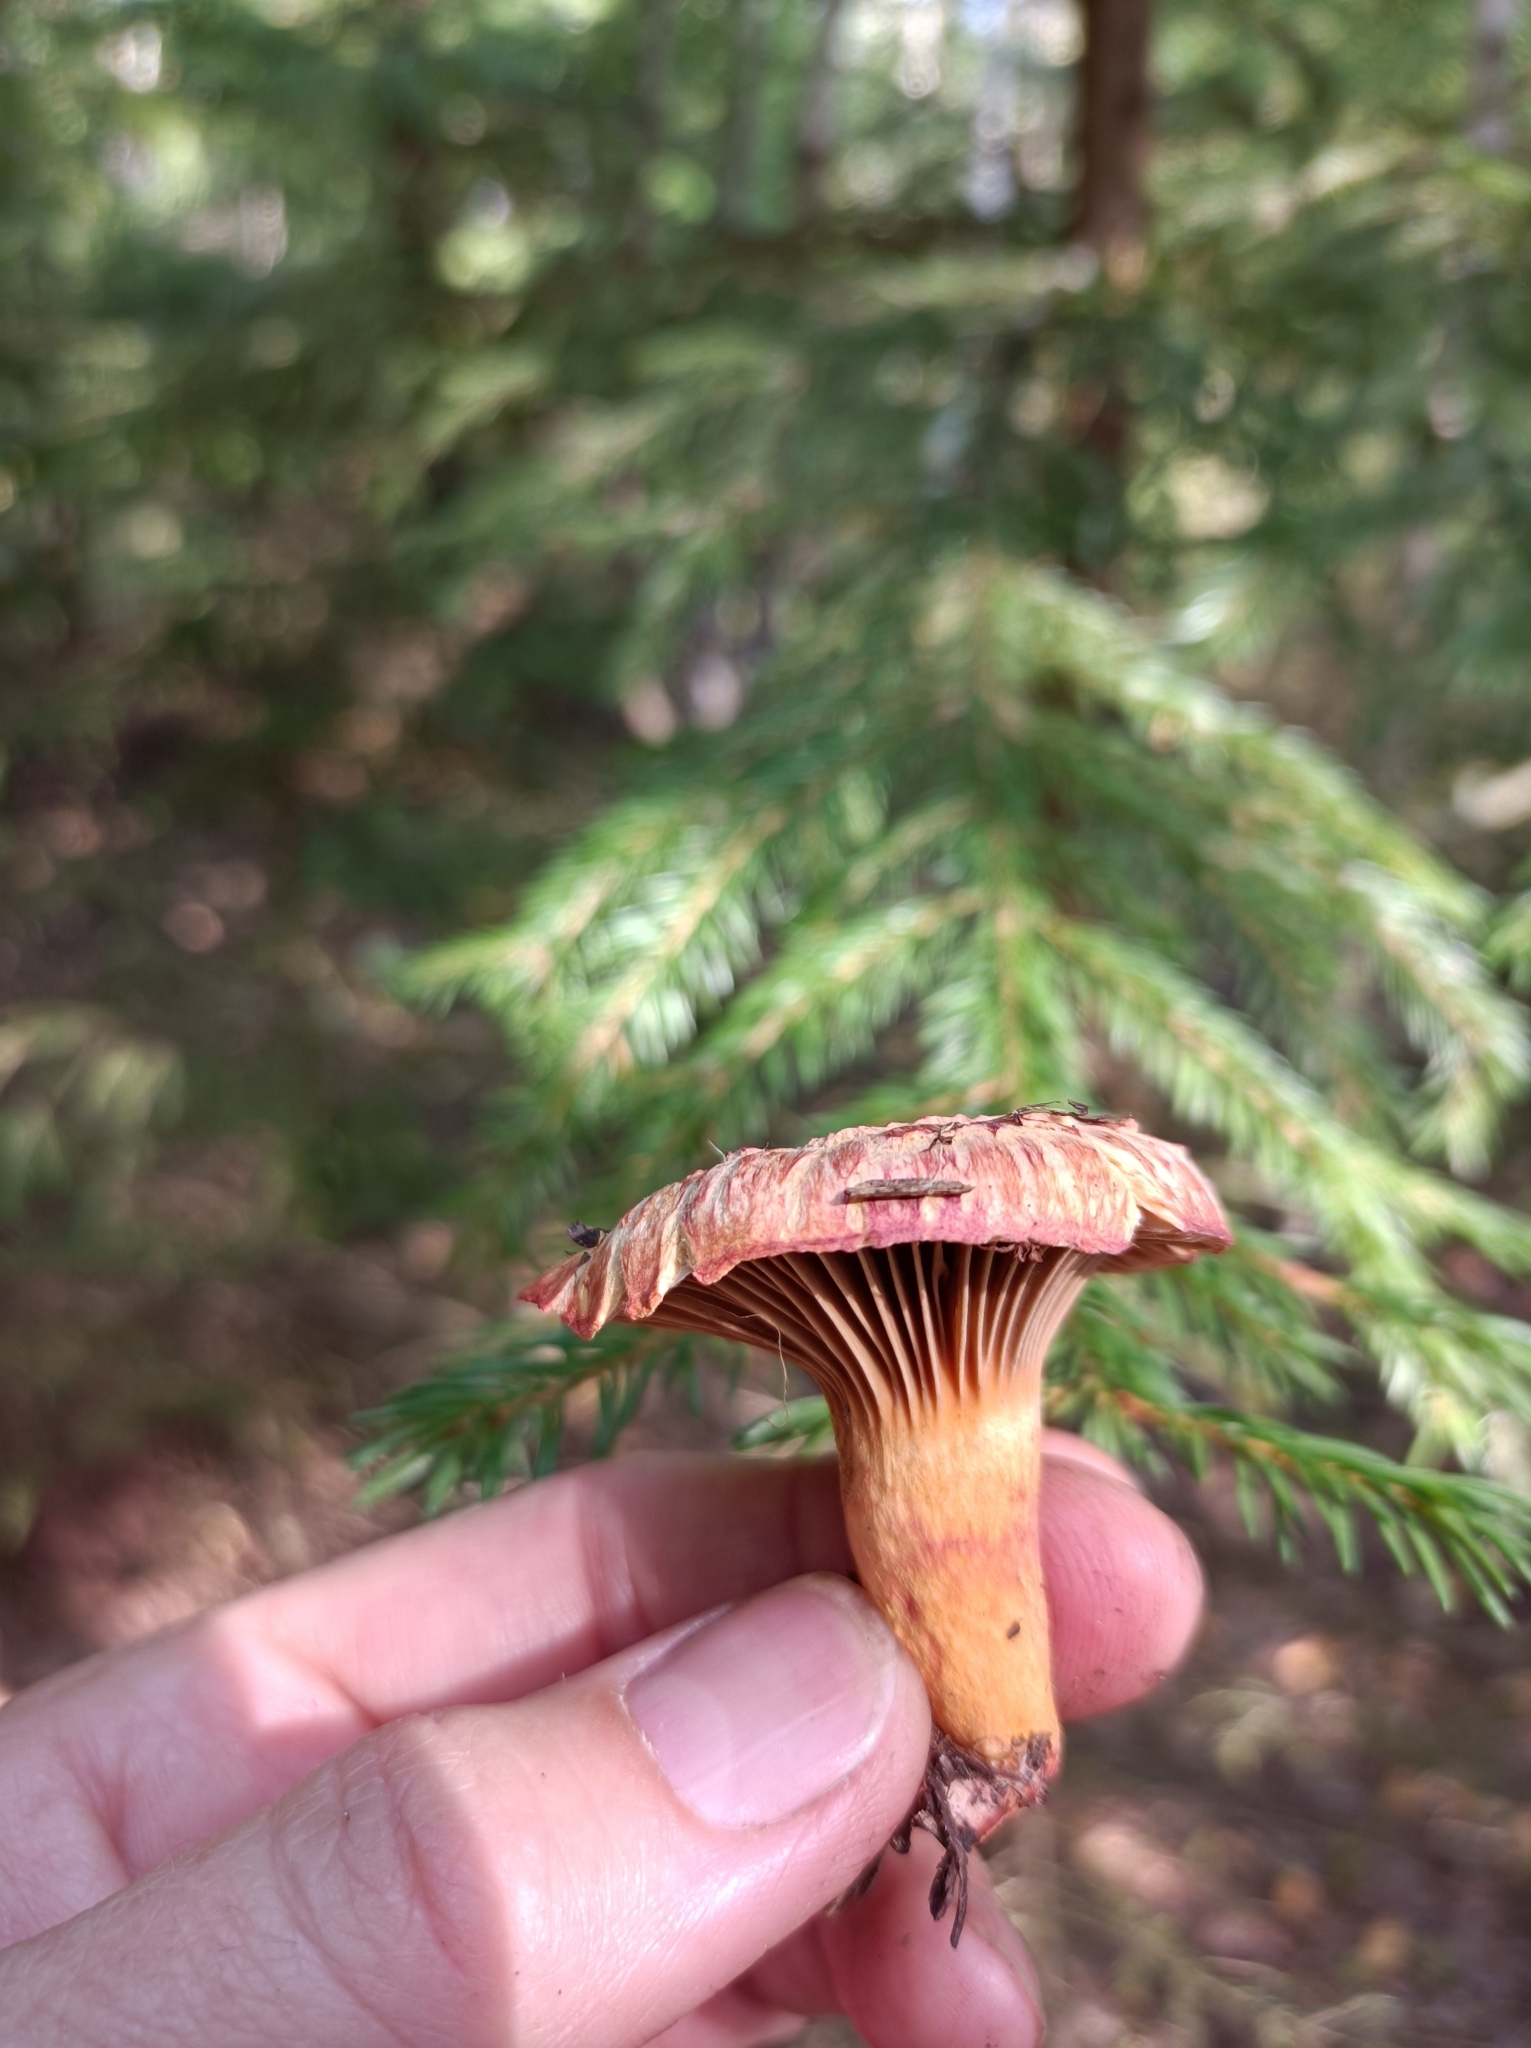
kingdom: Fungi
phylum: Basidiomycota
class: Agaricomycetes
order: Boletales
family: Gomphidiaceae
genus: Chroogomphus
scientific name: Chroogomphus rutilus
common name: Copper spike
